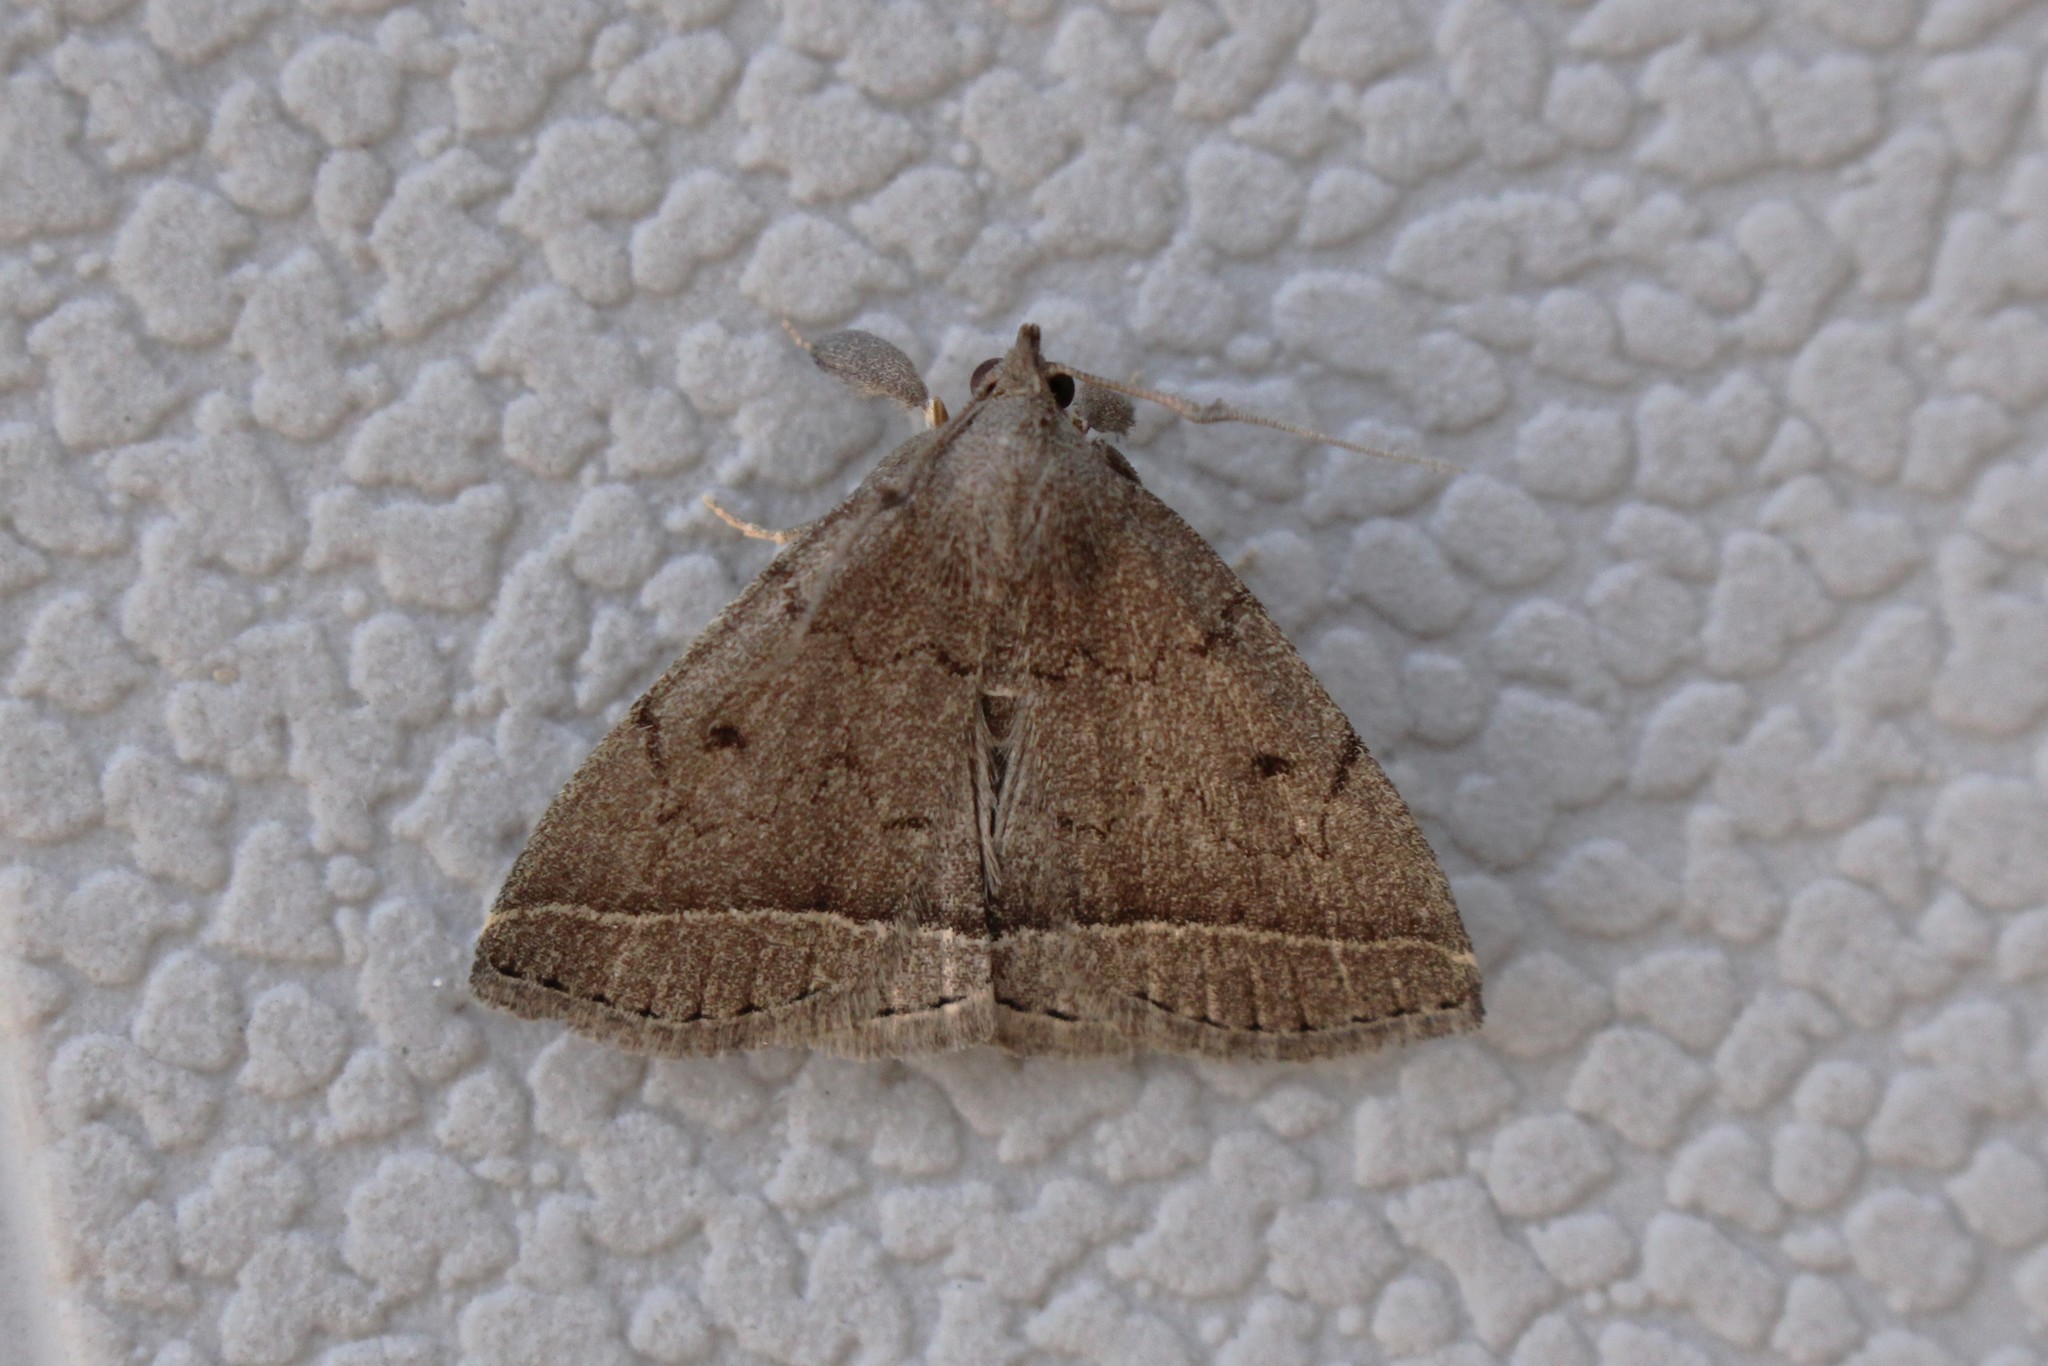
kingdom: Animalia
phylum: Arthropoda
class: Insecta
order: Lepidoptera
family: Erebidae
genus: Zanclognatha
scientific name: Zanclognatha jacchusalis
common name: Yellowish zanclognatha
